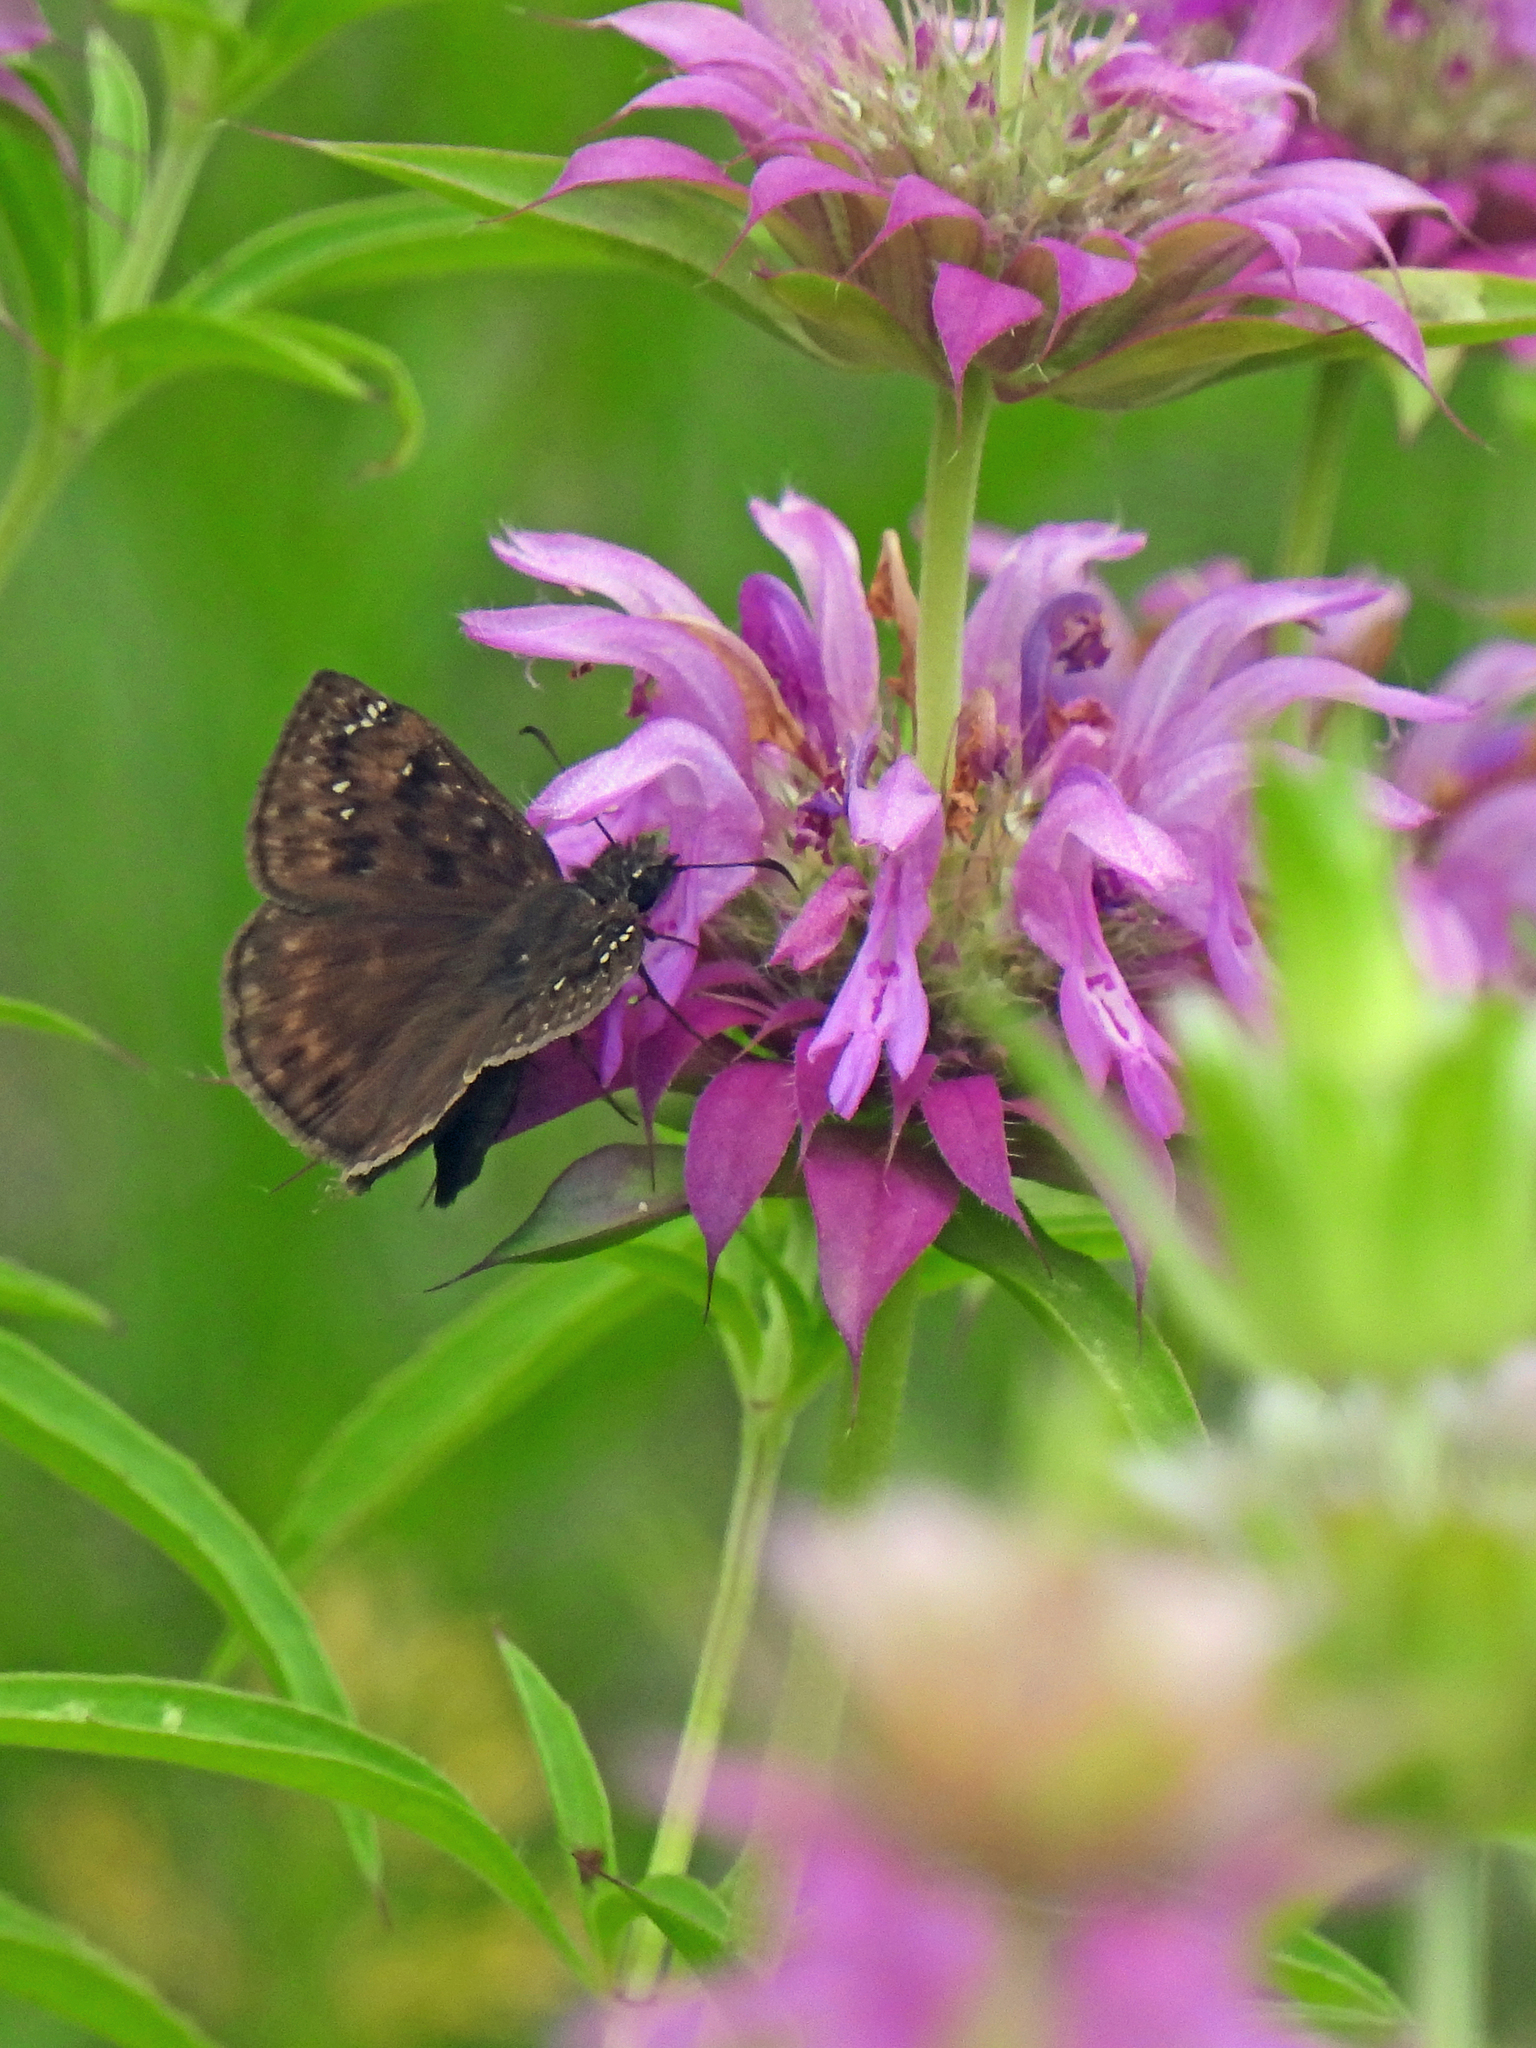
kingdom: Animalia
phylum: Arthropoda
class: Insecta
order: Lepidoptera
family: Hesperiidae
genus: Erynnis
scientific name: Erynnis horatius
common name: Horace's duskywing
